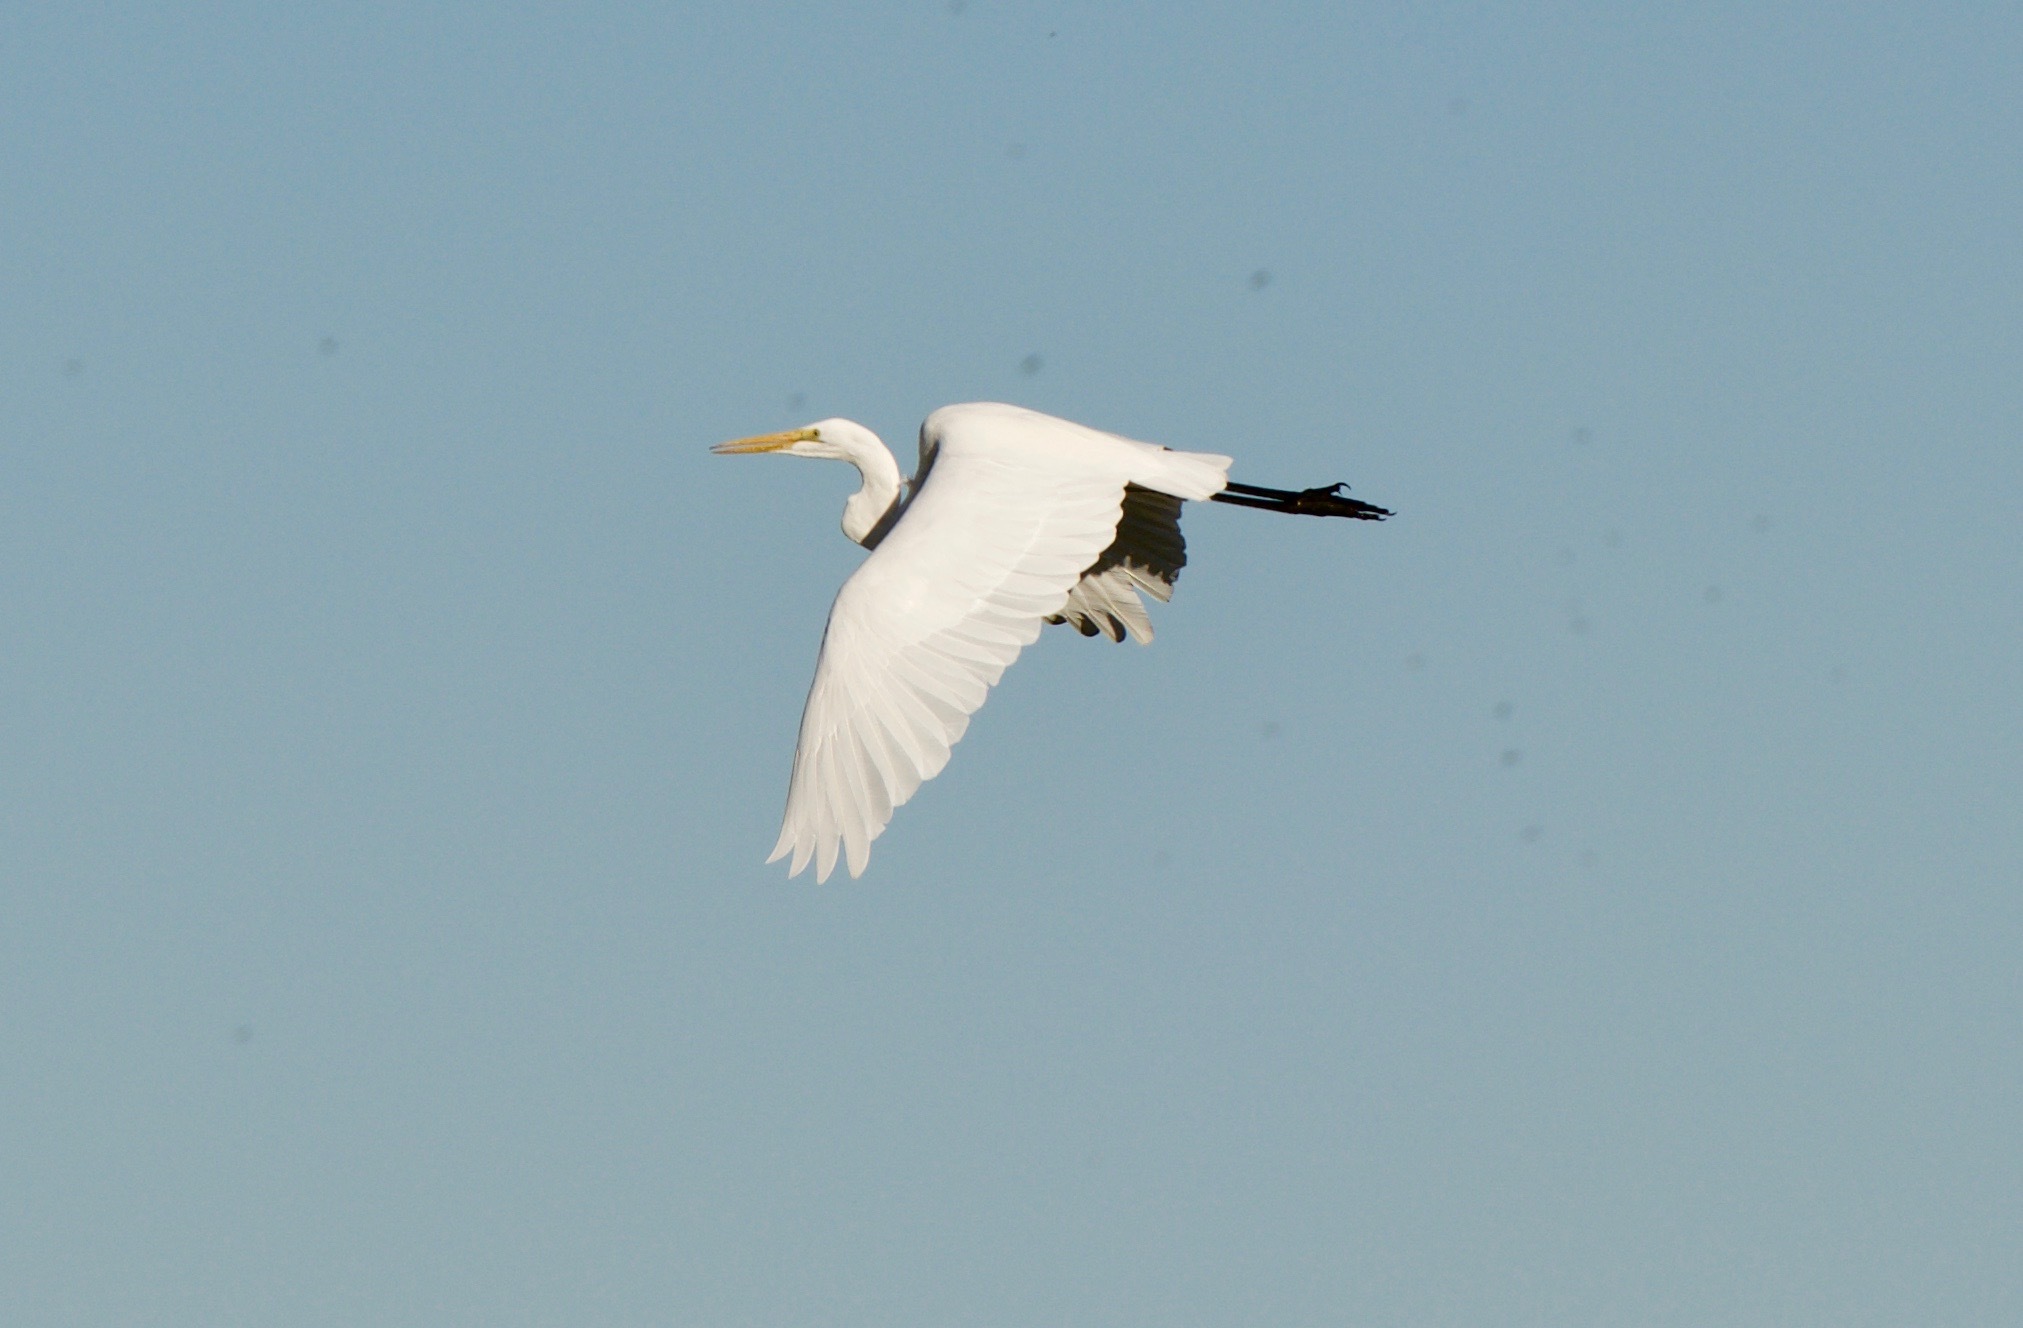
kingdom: Animalia
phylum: Chordata
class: Aves
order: Pelecaniformes
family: Ardeidae
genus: Ardea
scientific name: Ardea alba
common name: Great egret
